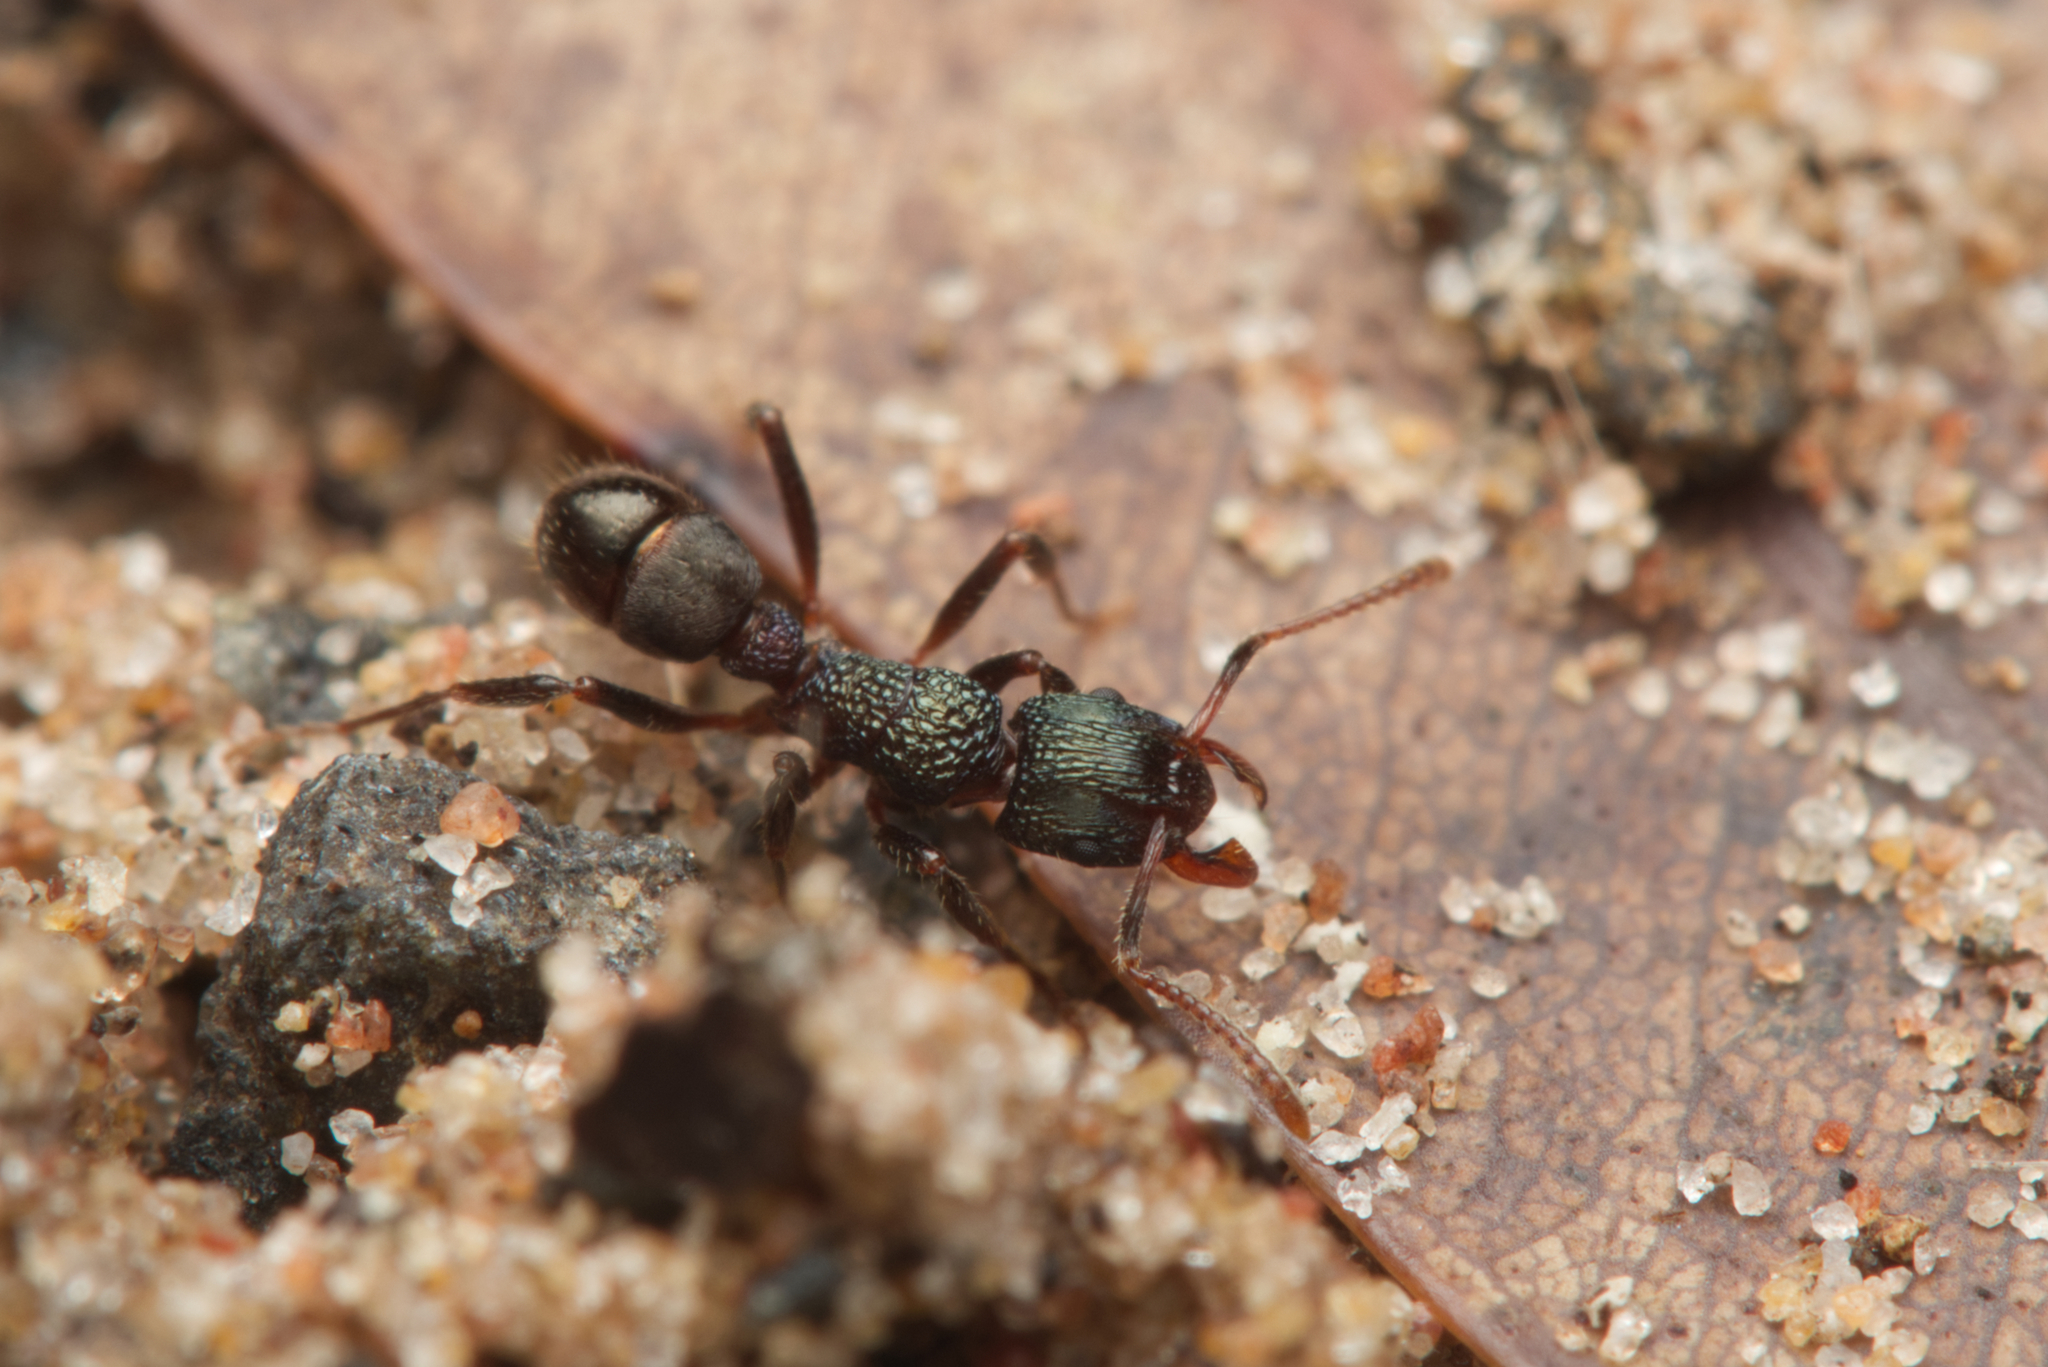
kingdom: Animalia
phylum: Arthropoda
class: Insecta
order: Hymenoptera
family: Formicidae
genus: Rhytidoponera
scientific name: Rhytidoponera victoriae
